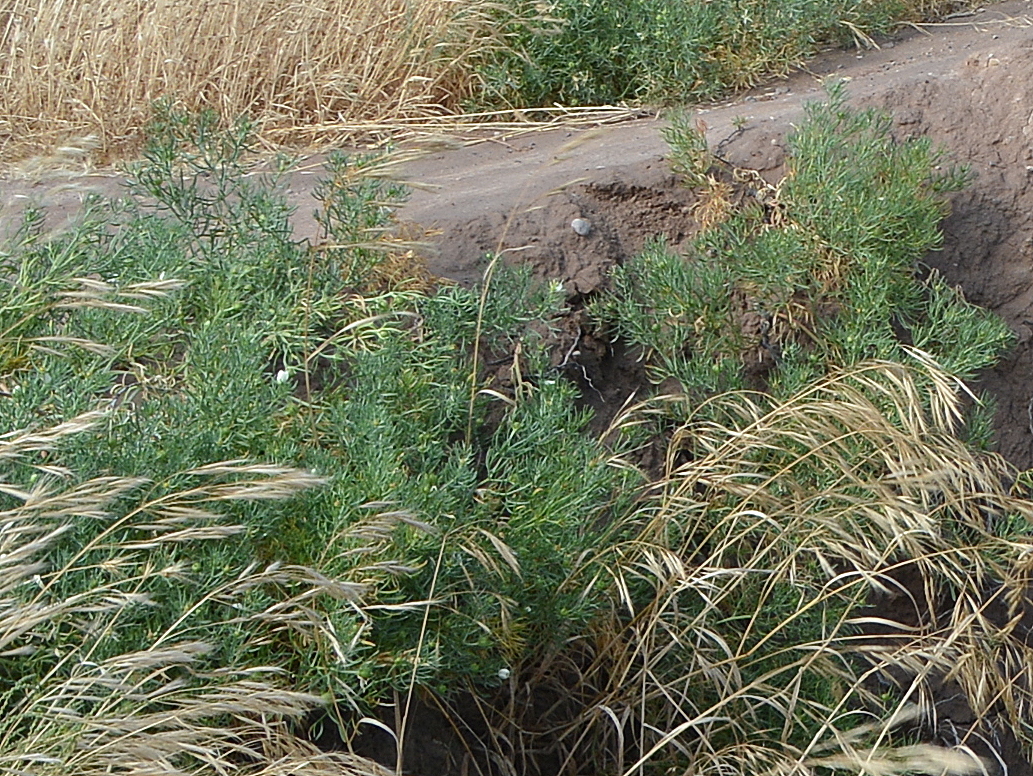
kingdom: Plantae
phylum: Tracheophyta
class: Magnoliopsida
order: Sapindales
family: Tetradiclidaceae
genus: Peganum
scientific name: Peganum harmala
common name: Harmal peganum
